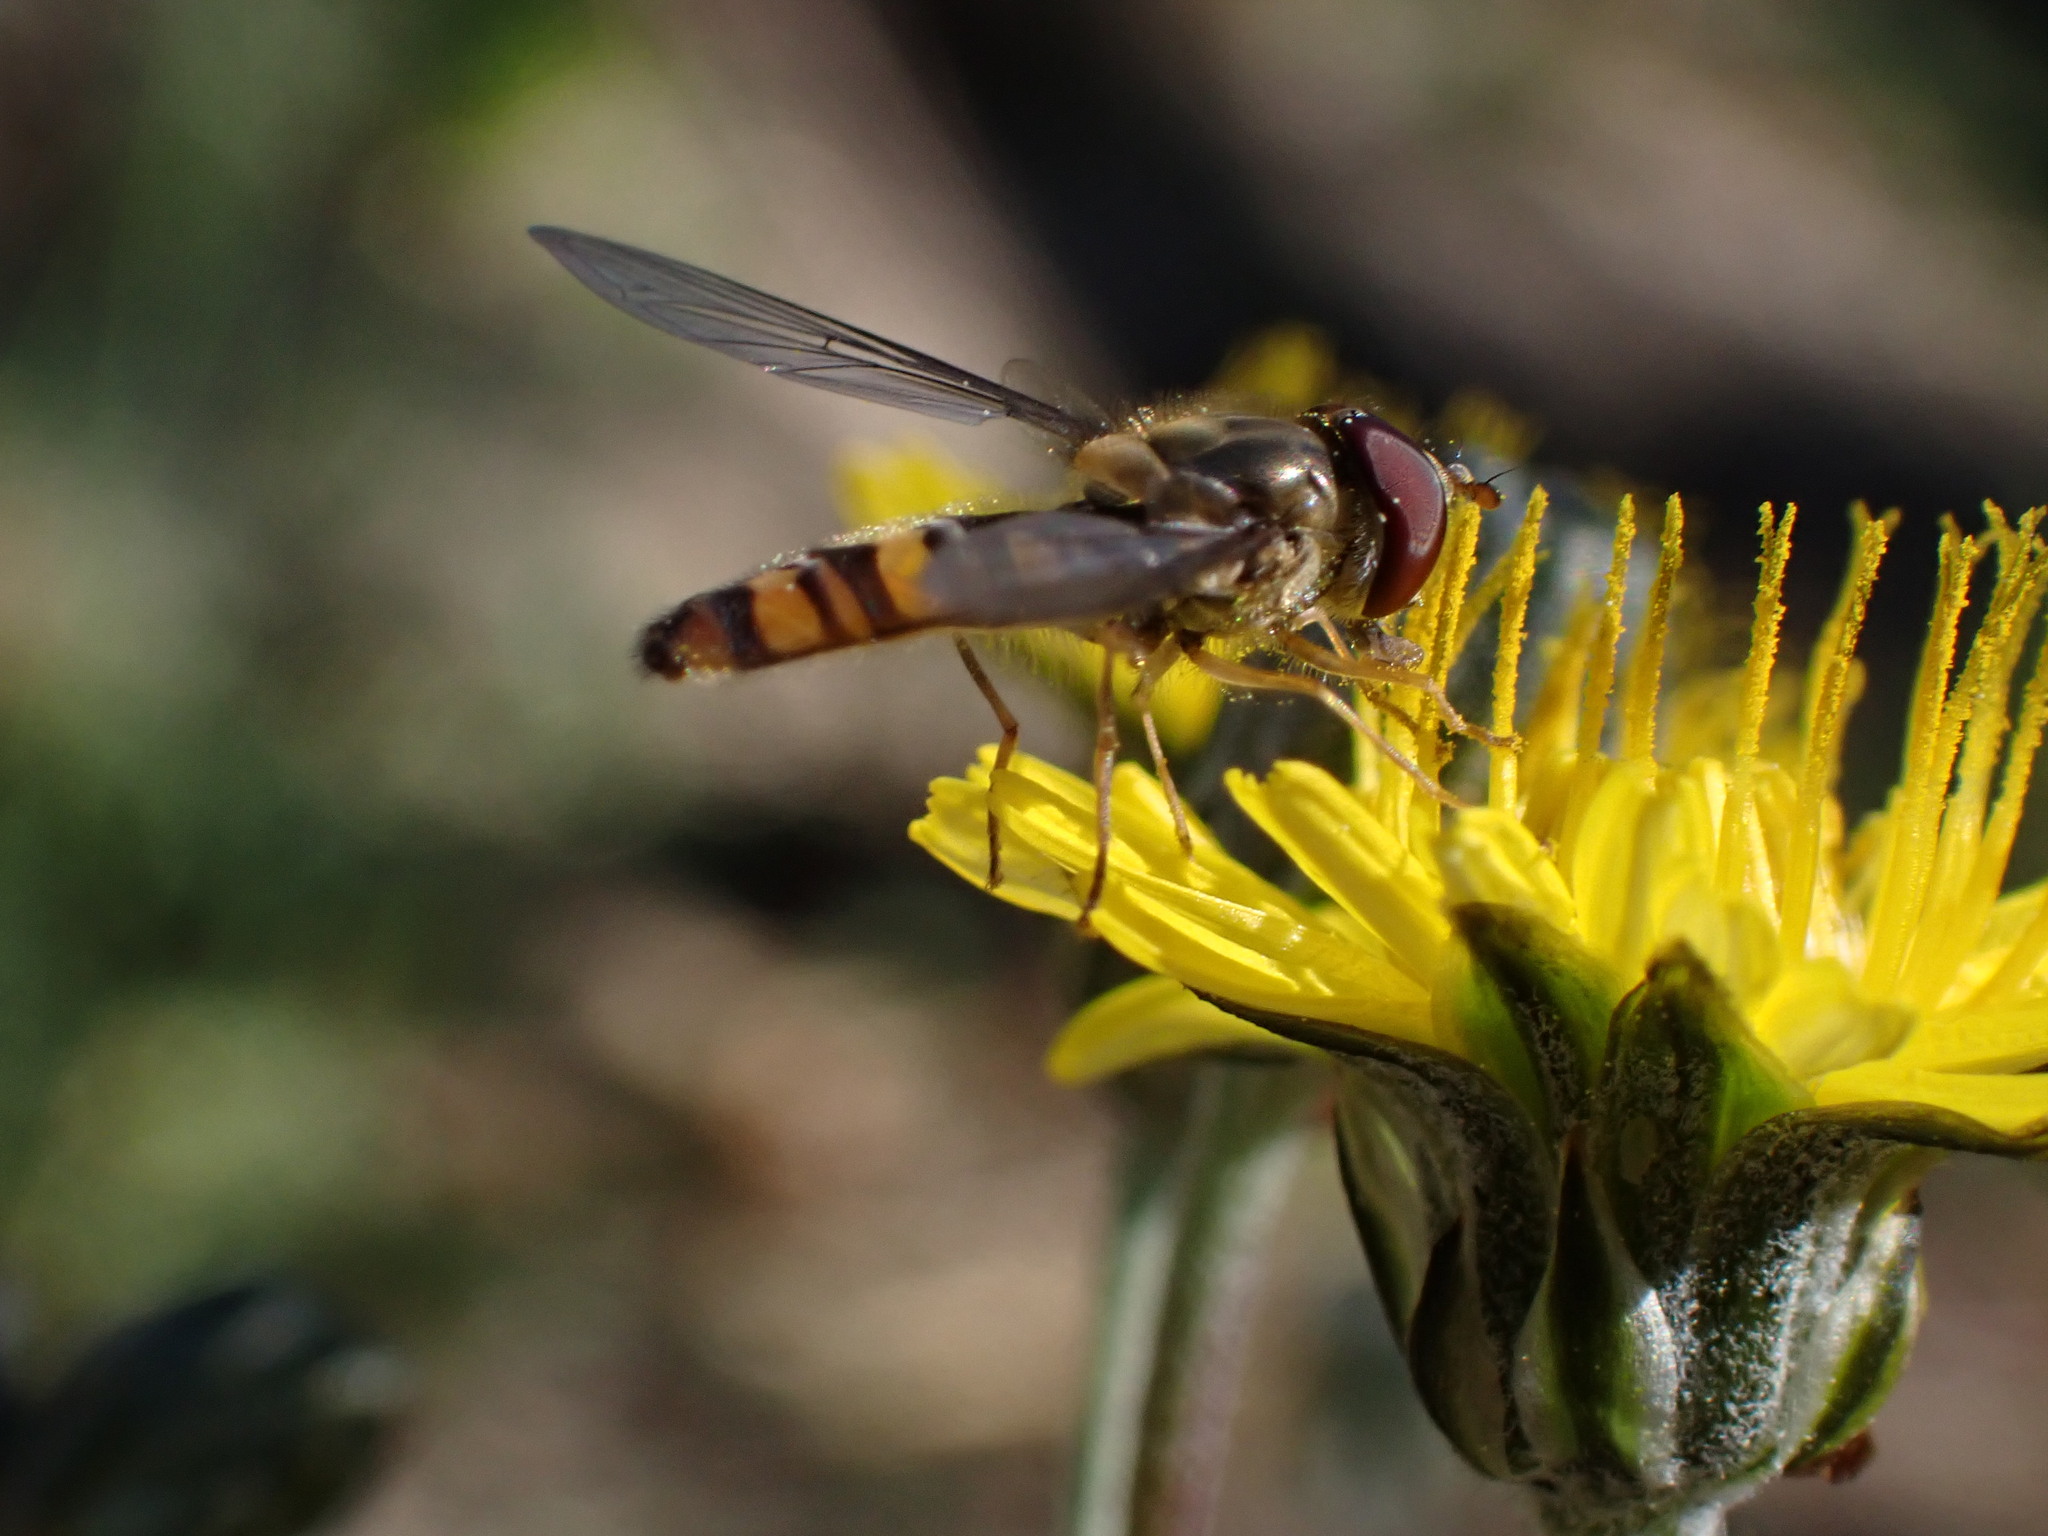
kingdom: Animalia
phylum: Arthropoda
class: Insecta
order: Diptera
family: Syrphidae
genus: Episyrphus
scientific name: Episyrphus balteatus
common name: Marmalade hoverfly
